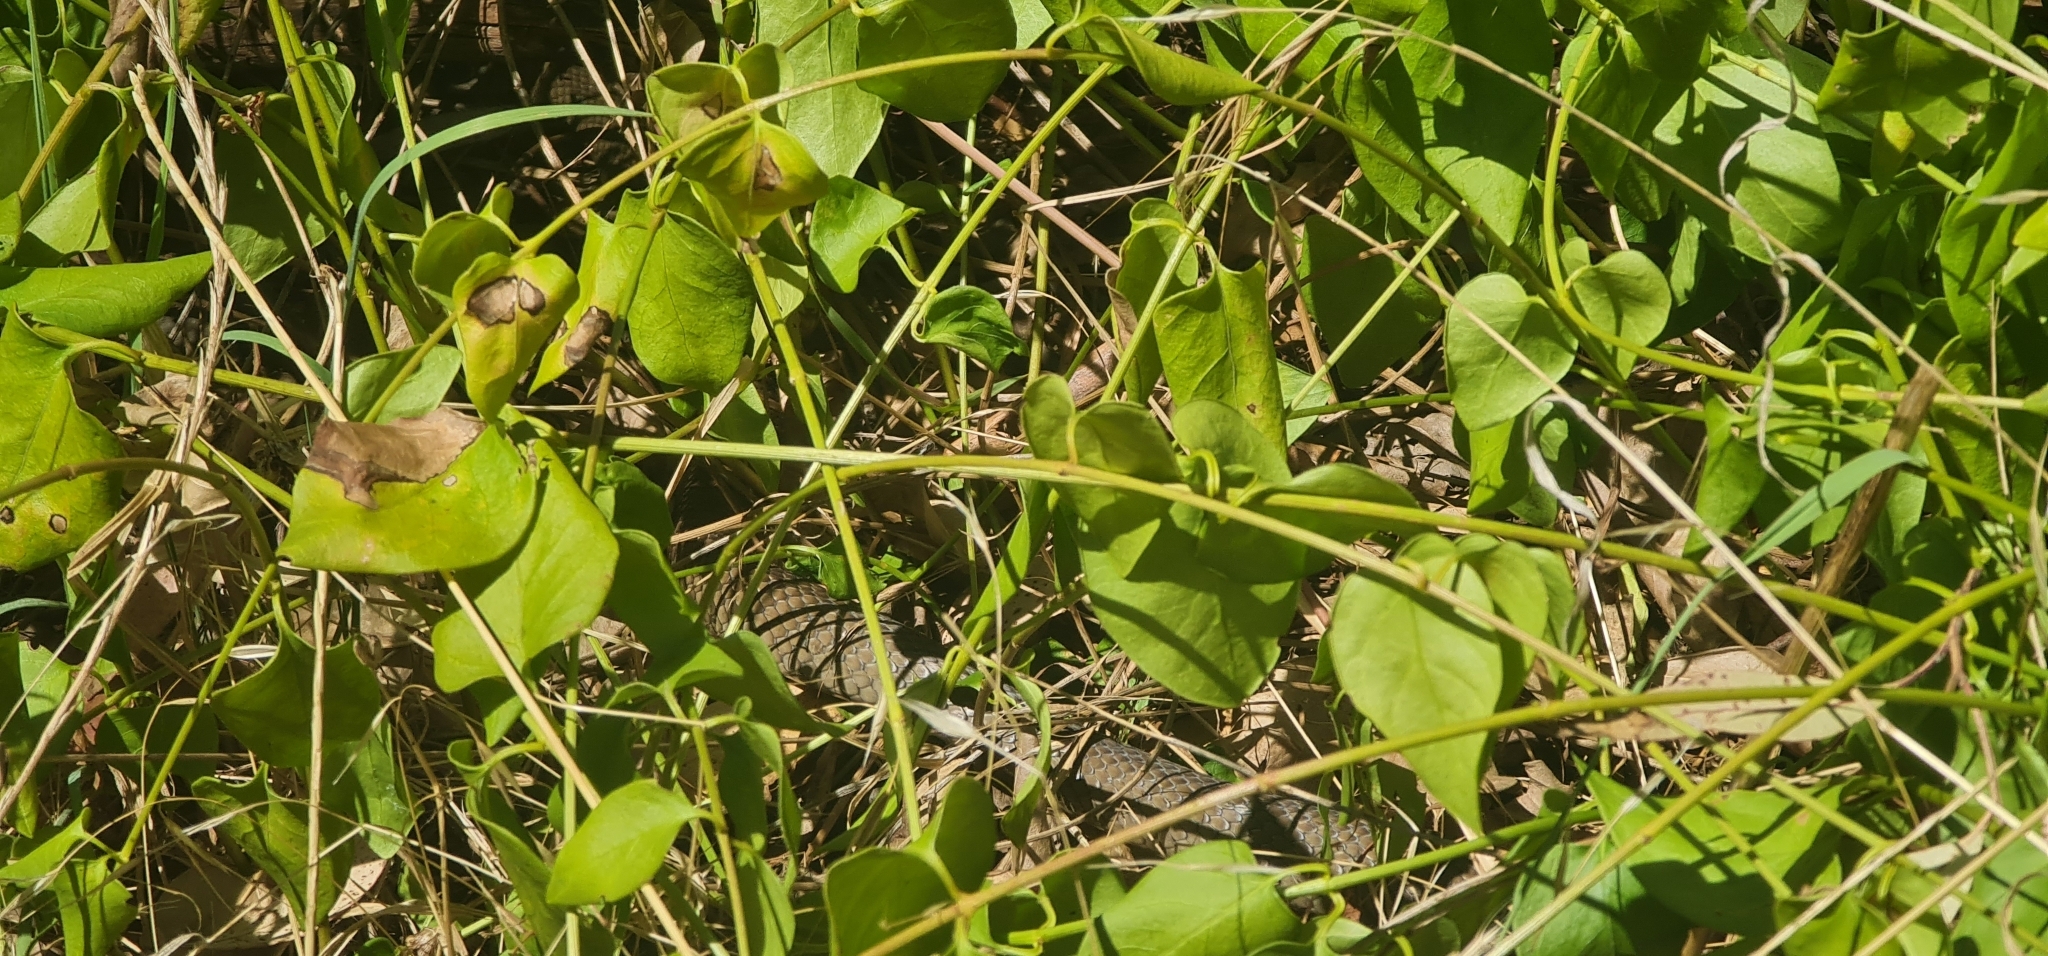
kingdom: Animalia
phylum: Chordata
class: Squamata
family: Elapidae
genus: Pseudonaja
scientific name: Pseudonaja textilis
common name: Eastern brown snake
